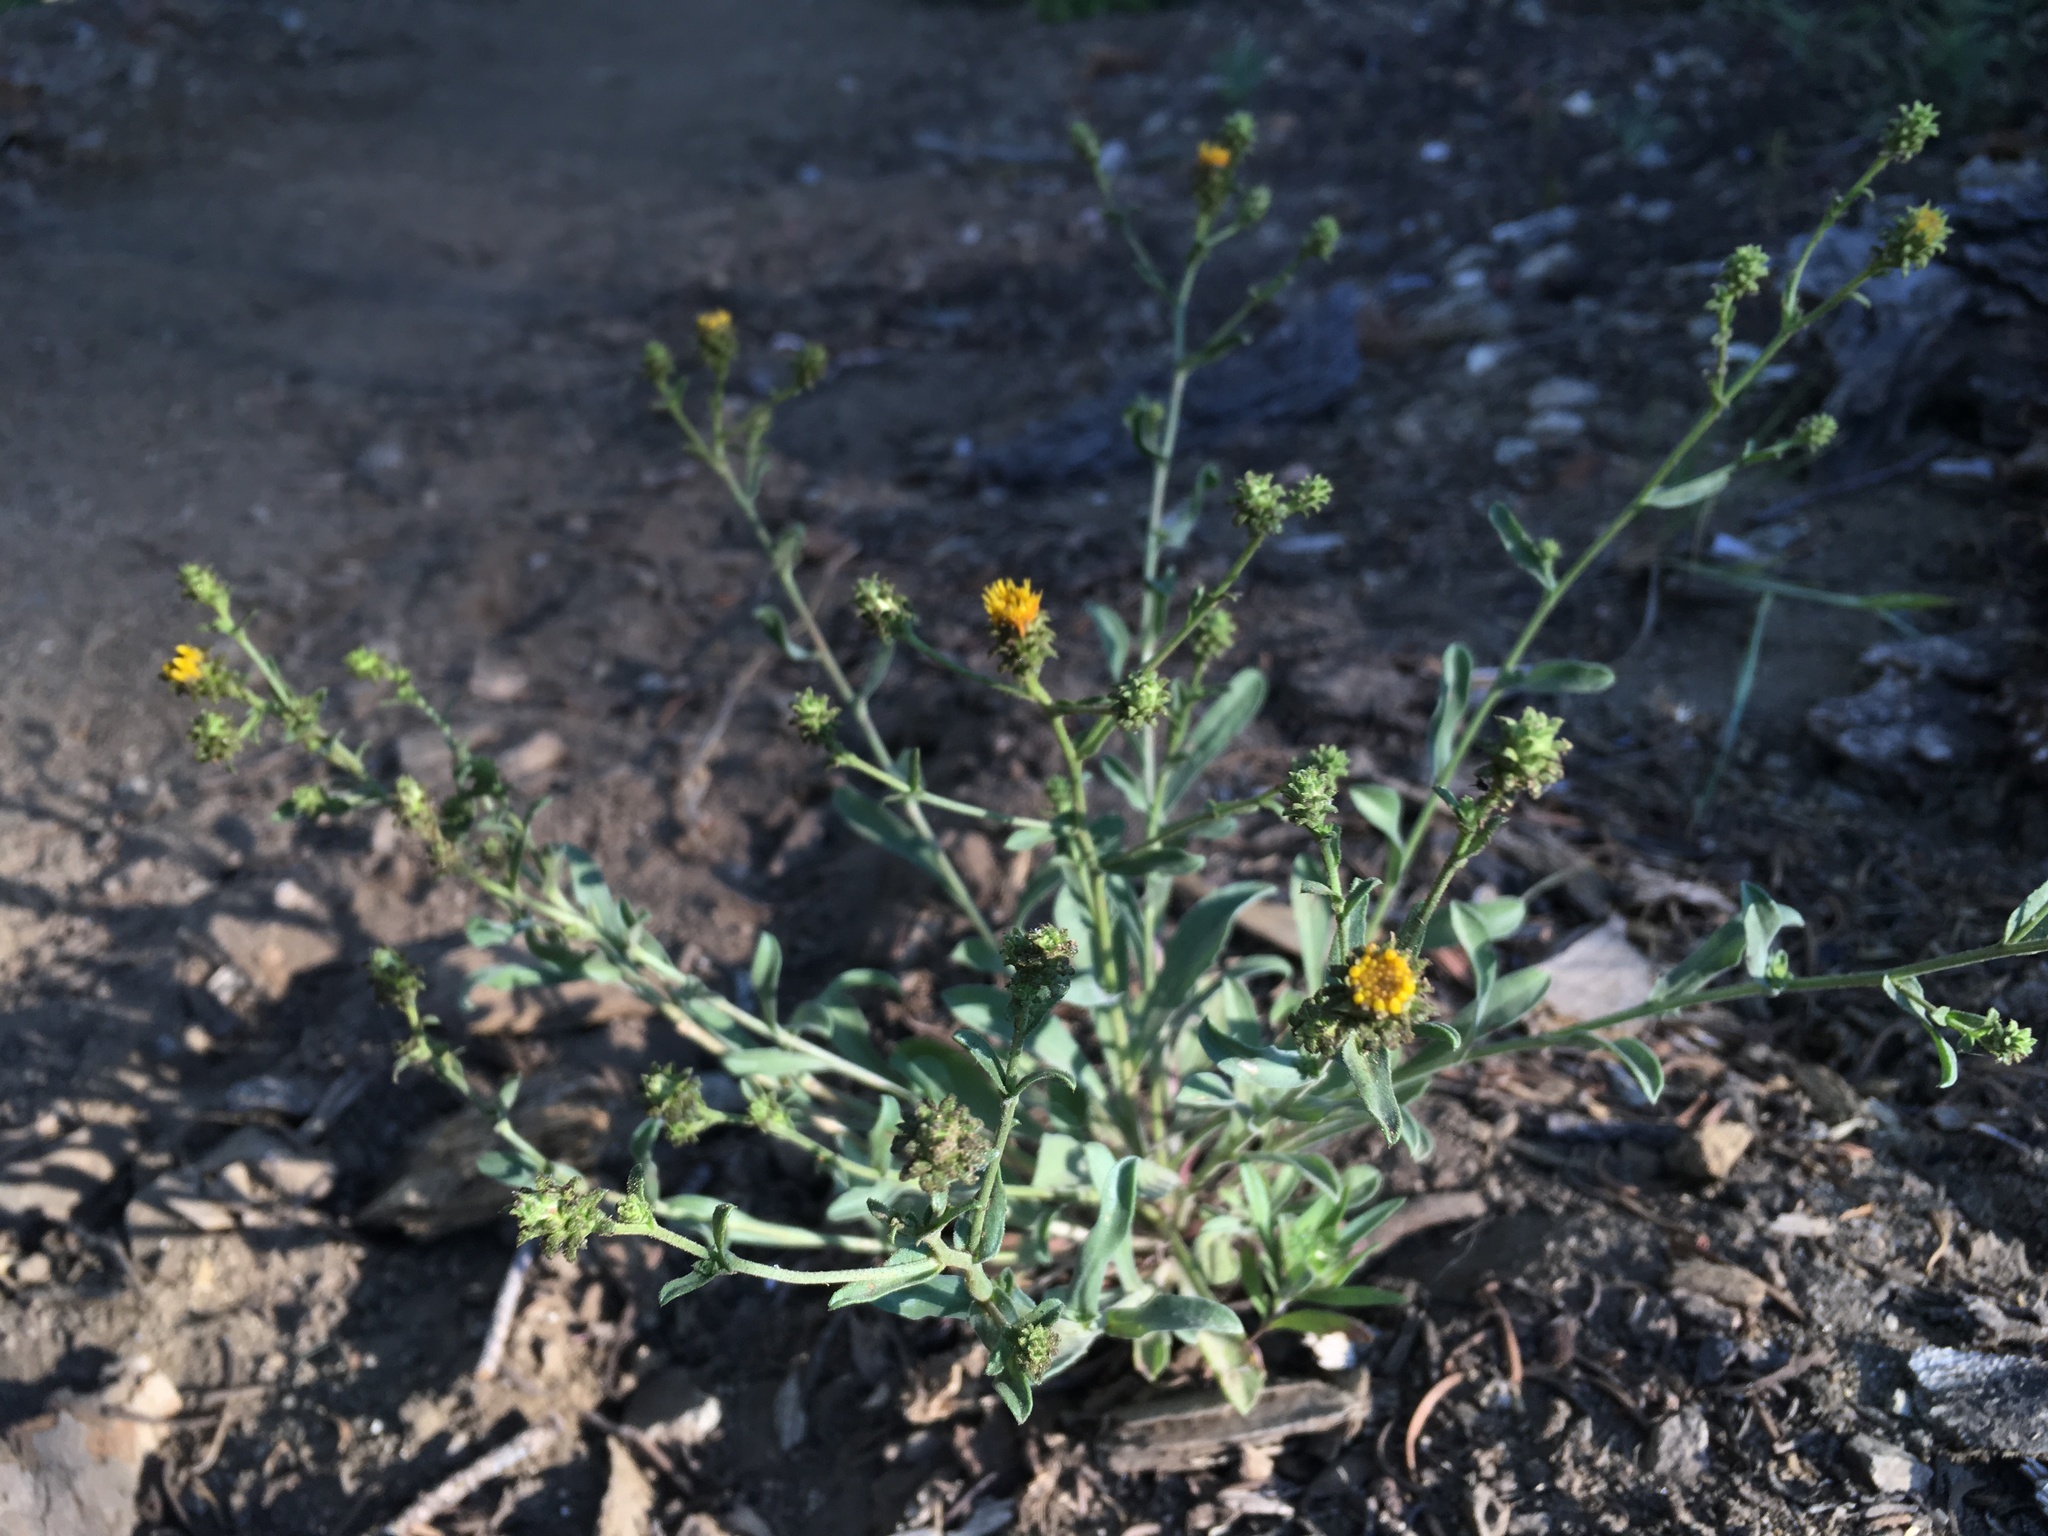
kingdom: Plantae
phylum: Tracheophyta
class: Magnoliopsida
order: Asterales
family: Asteraceae
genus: Dieteria
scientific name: Dieteria canescens
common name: Hoary-aster
